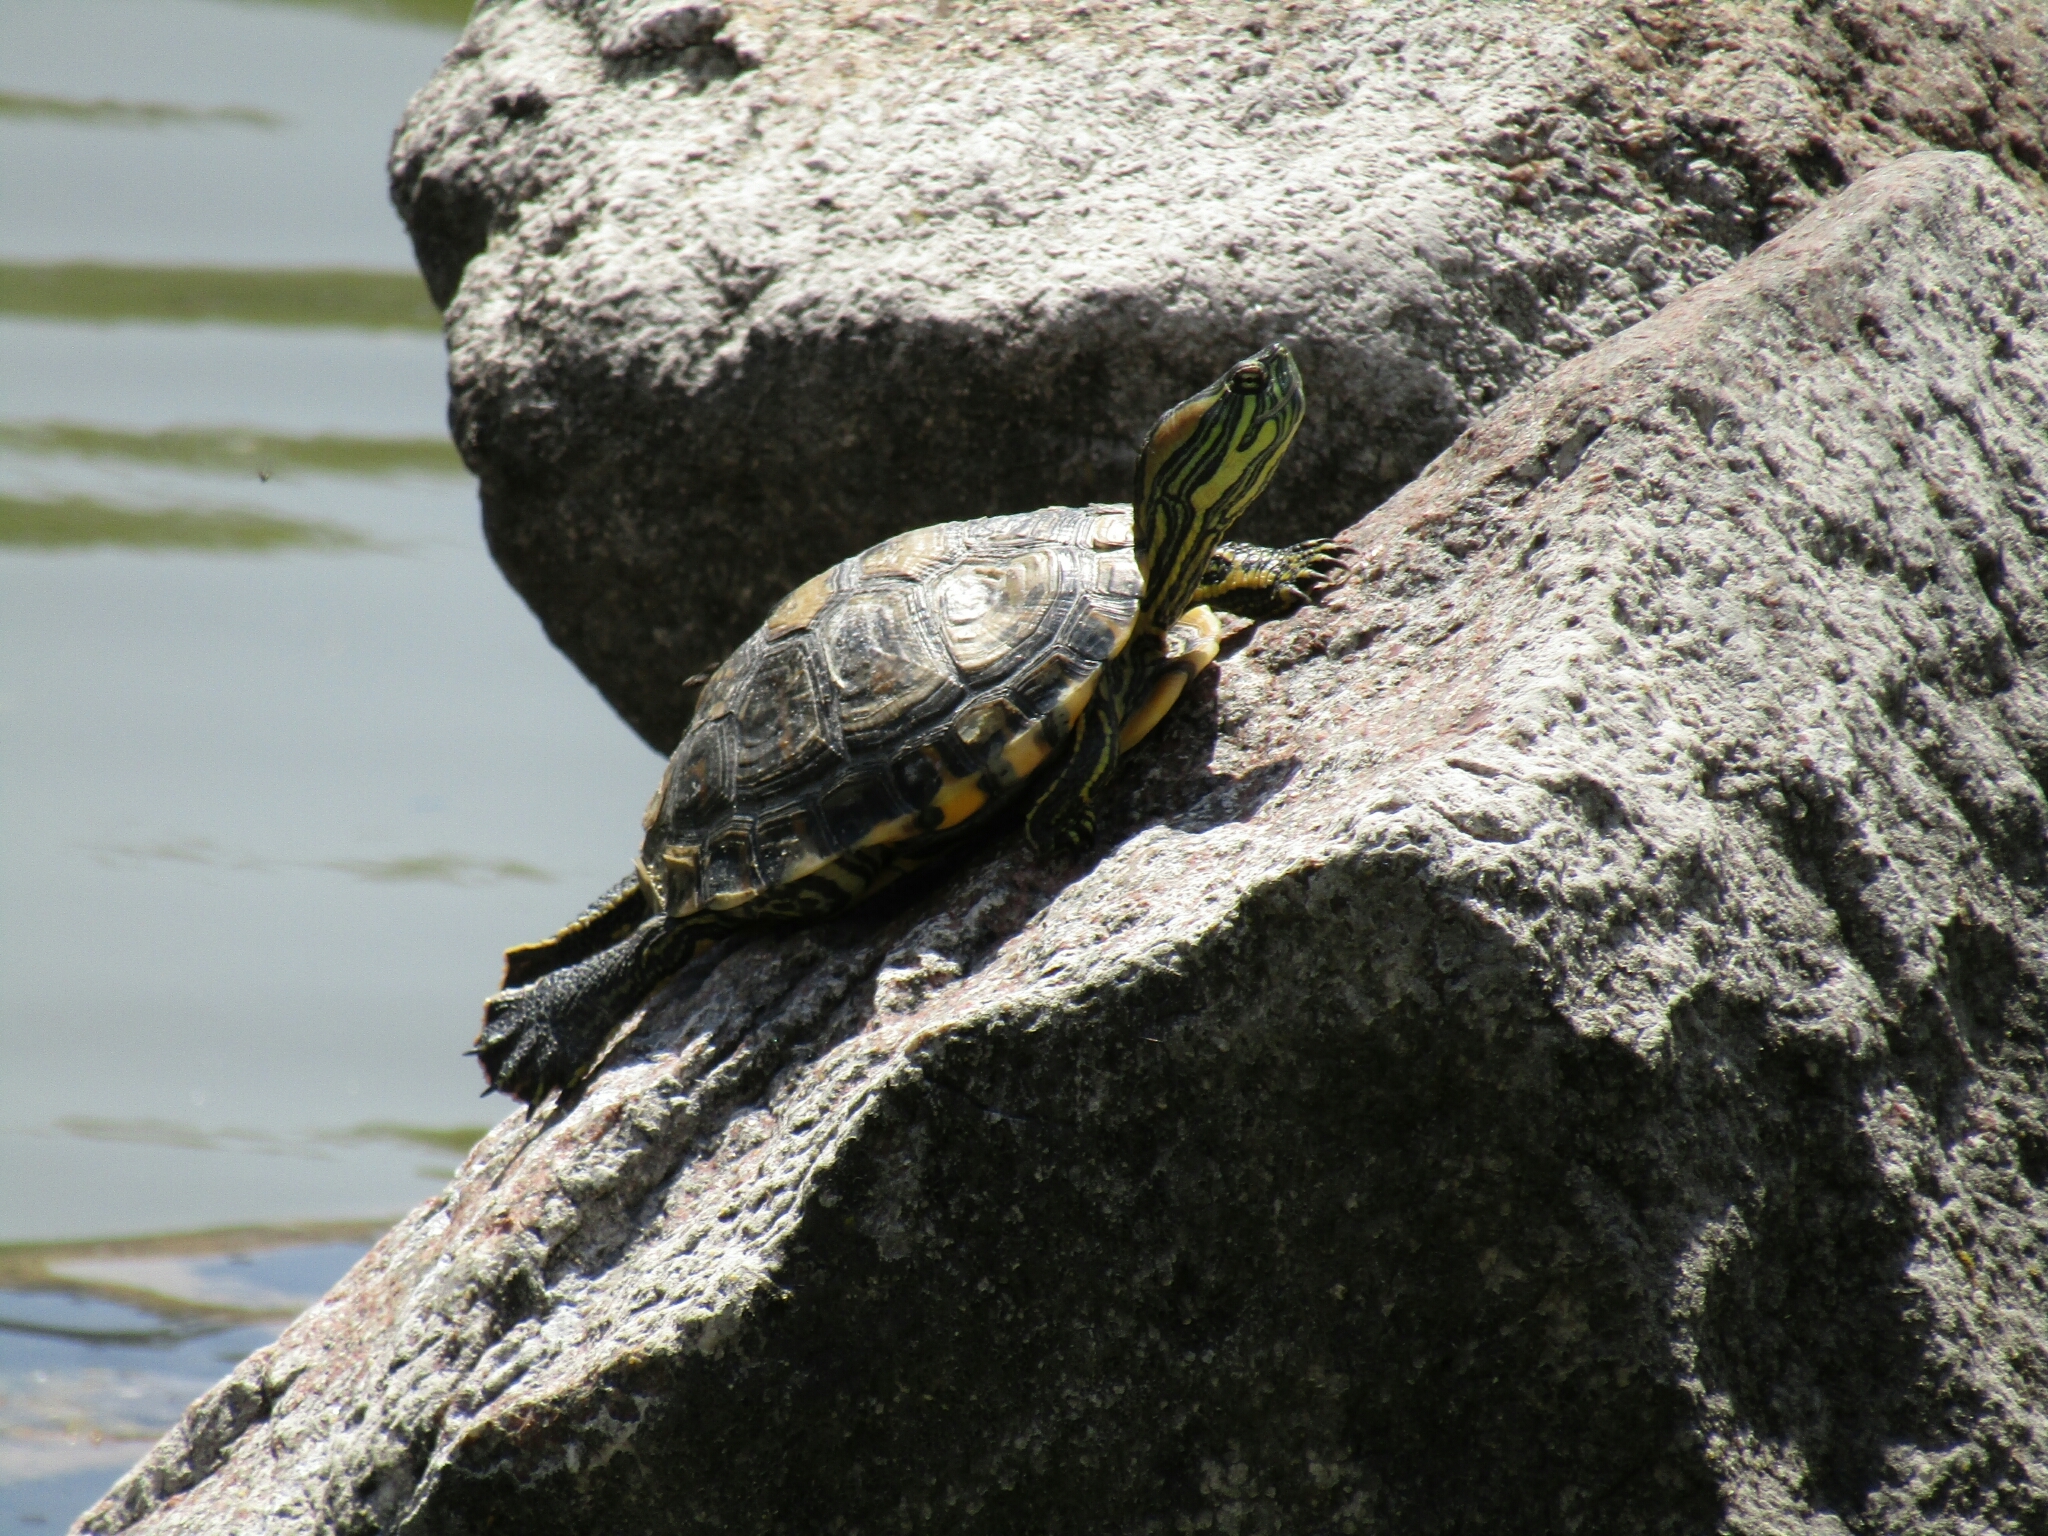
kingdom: Animalia
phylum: Chordata
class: Testudines
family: Emydidae
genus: Trachemys
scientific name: Trachemys dorbigni
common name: Black-bellied slider
